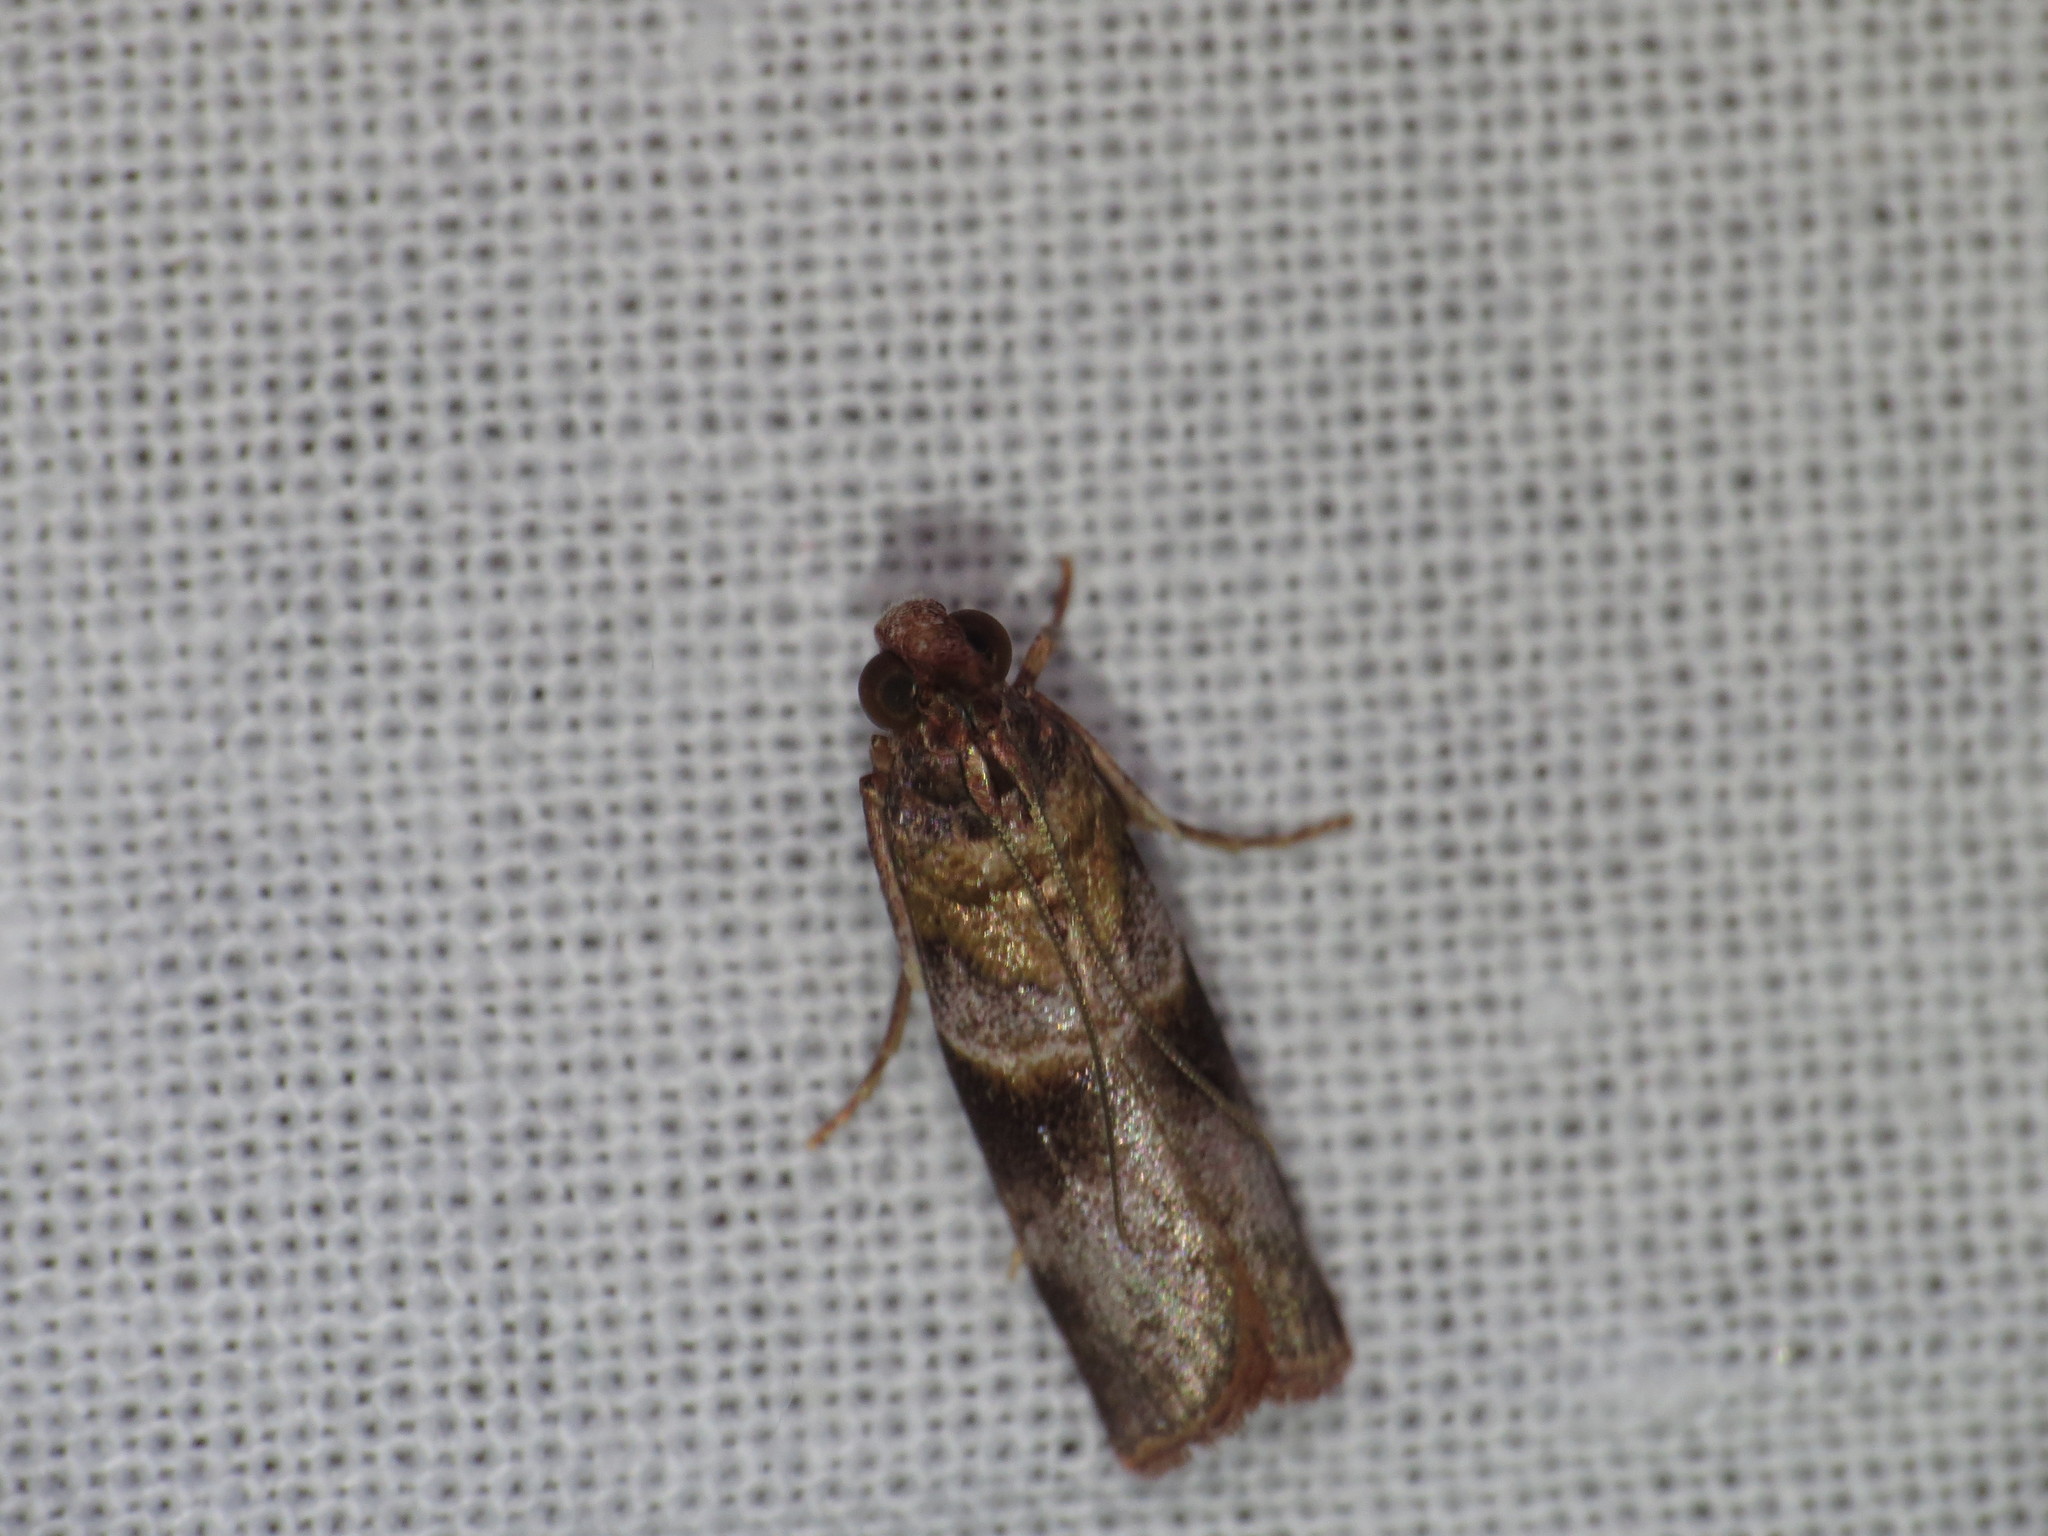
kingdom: Animalia
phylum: Arthropoda
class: Insecta
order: Lepidoptera
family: Pyralidae
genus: Calguia
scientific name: Calguia defiguralis
